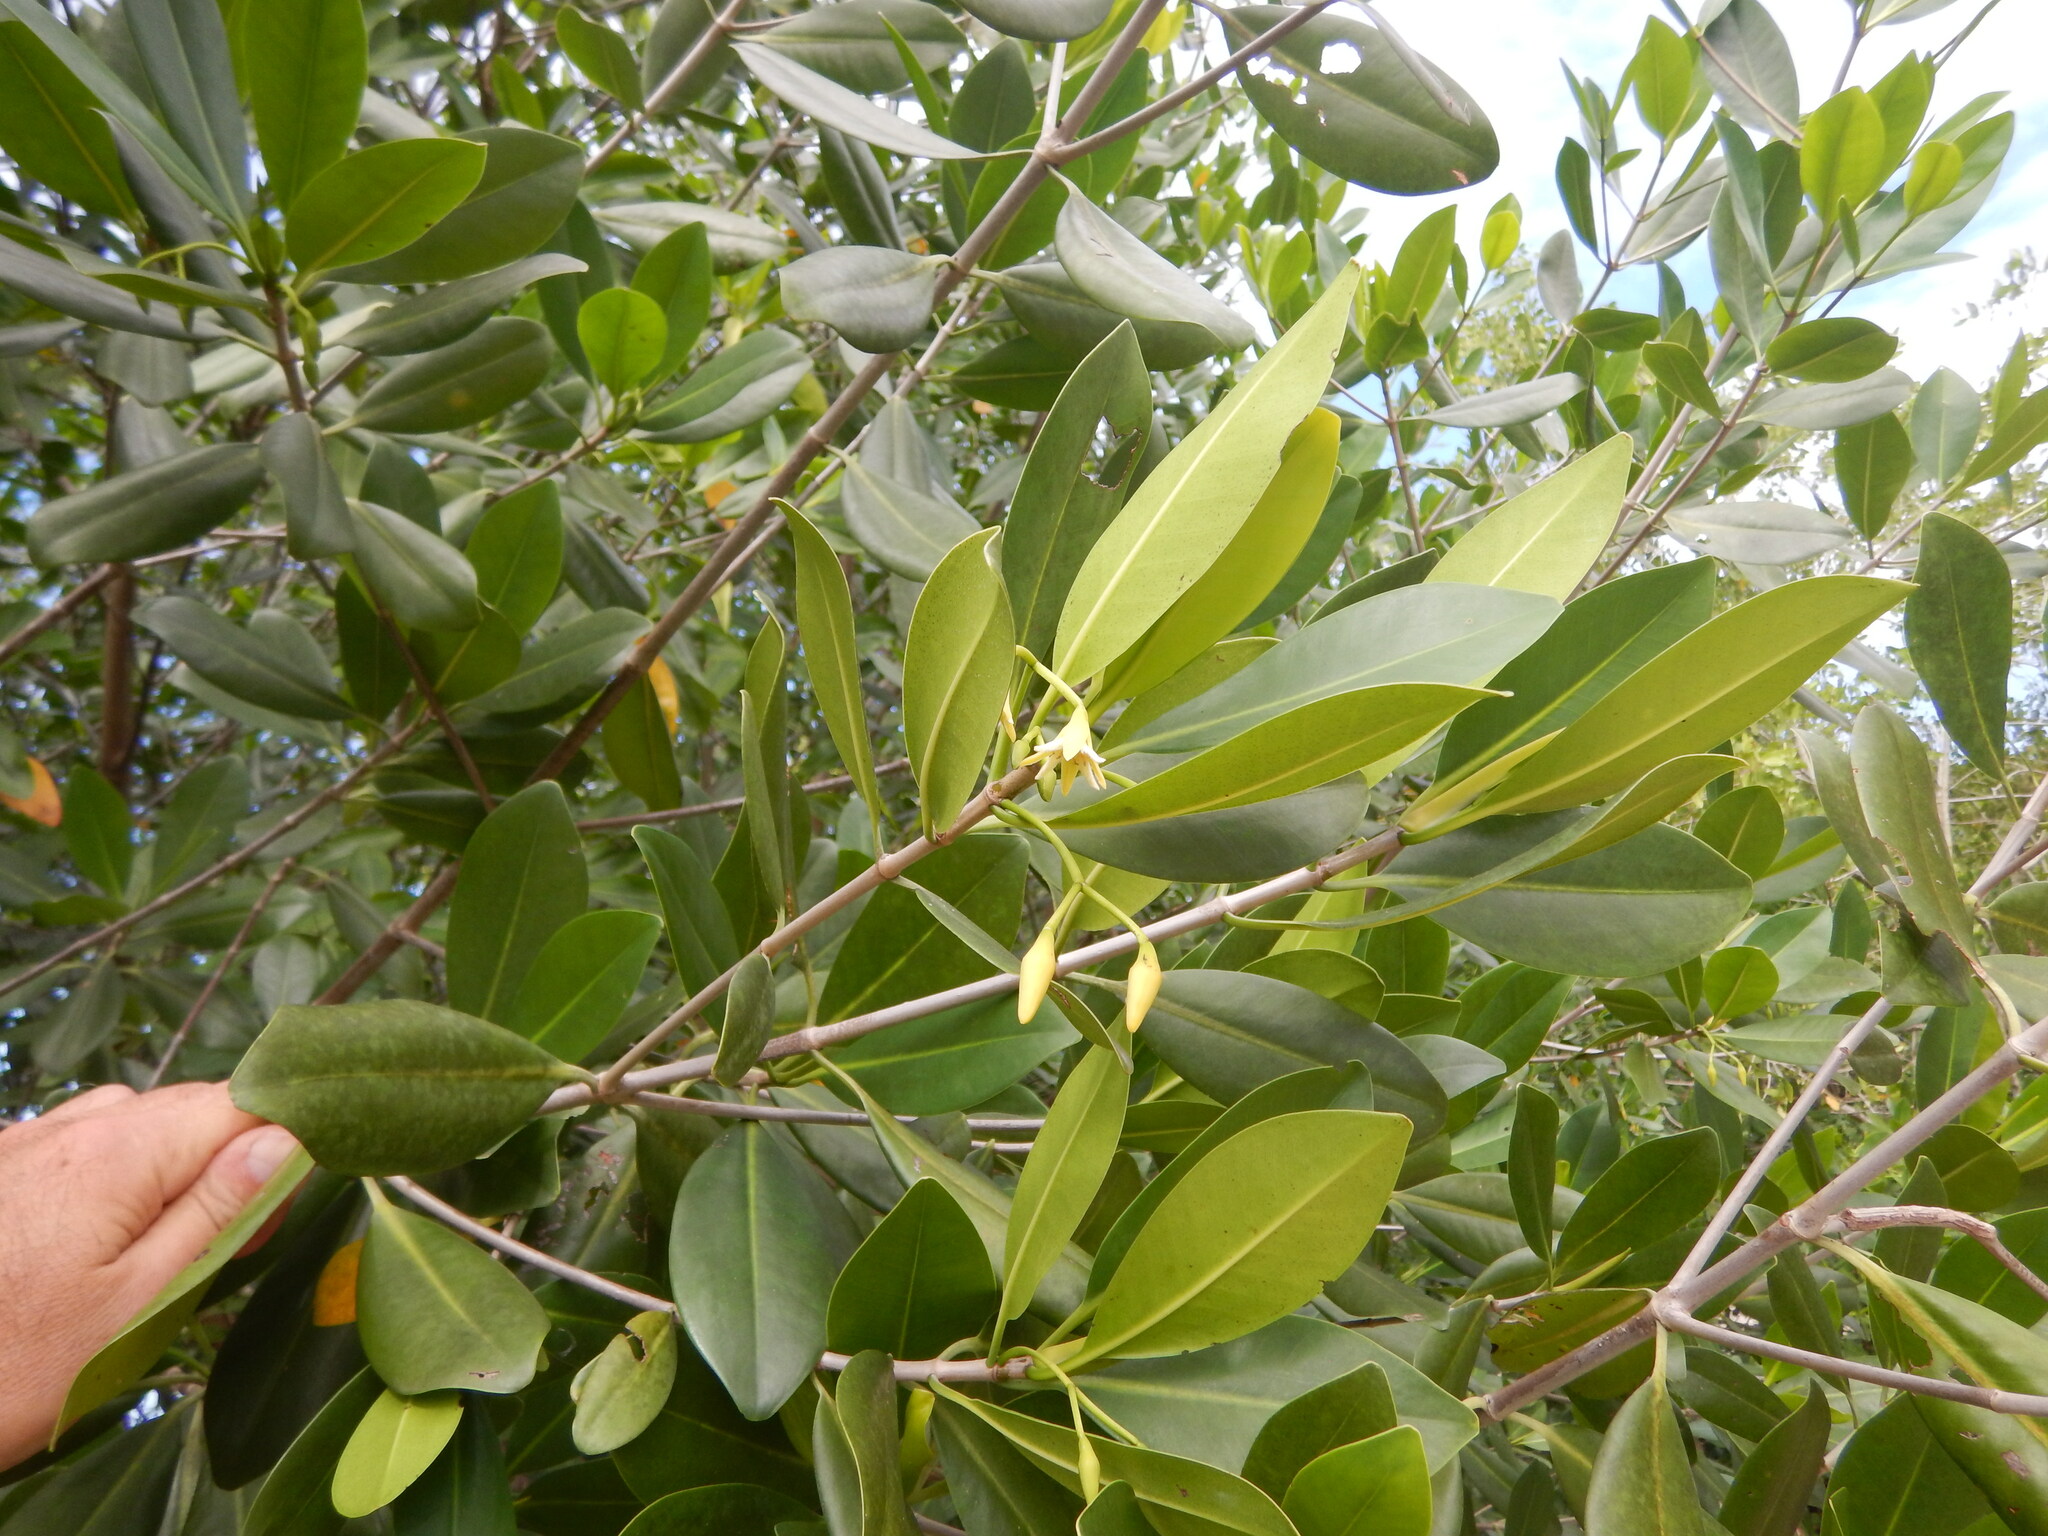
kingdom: Plantae
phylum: Tracheophyta
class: Magnoliopsida
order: Malpighiales
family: Rhizophoraceae
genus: Rhizophora
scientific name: Rhizophora mangle
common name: Red mangrove
